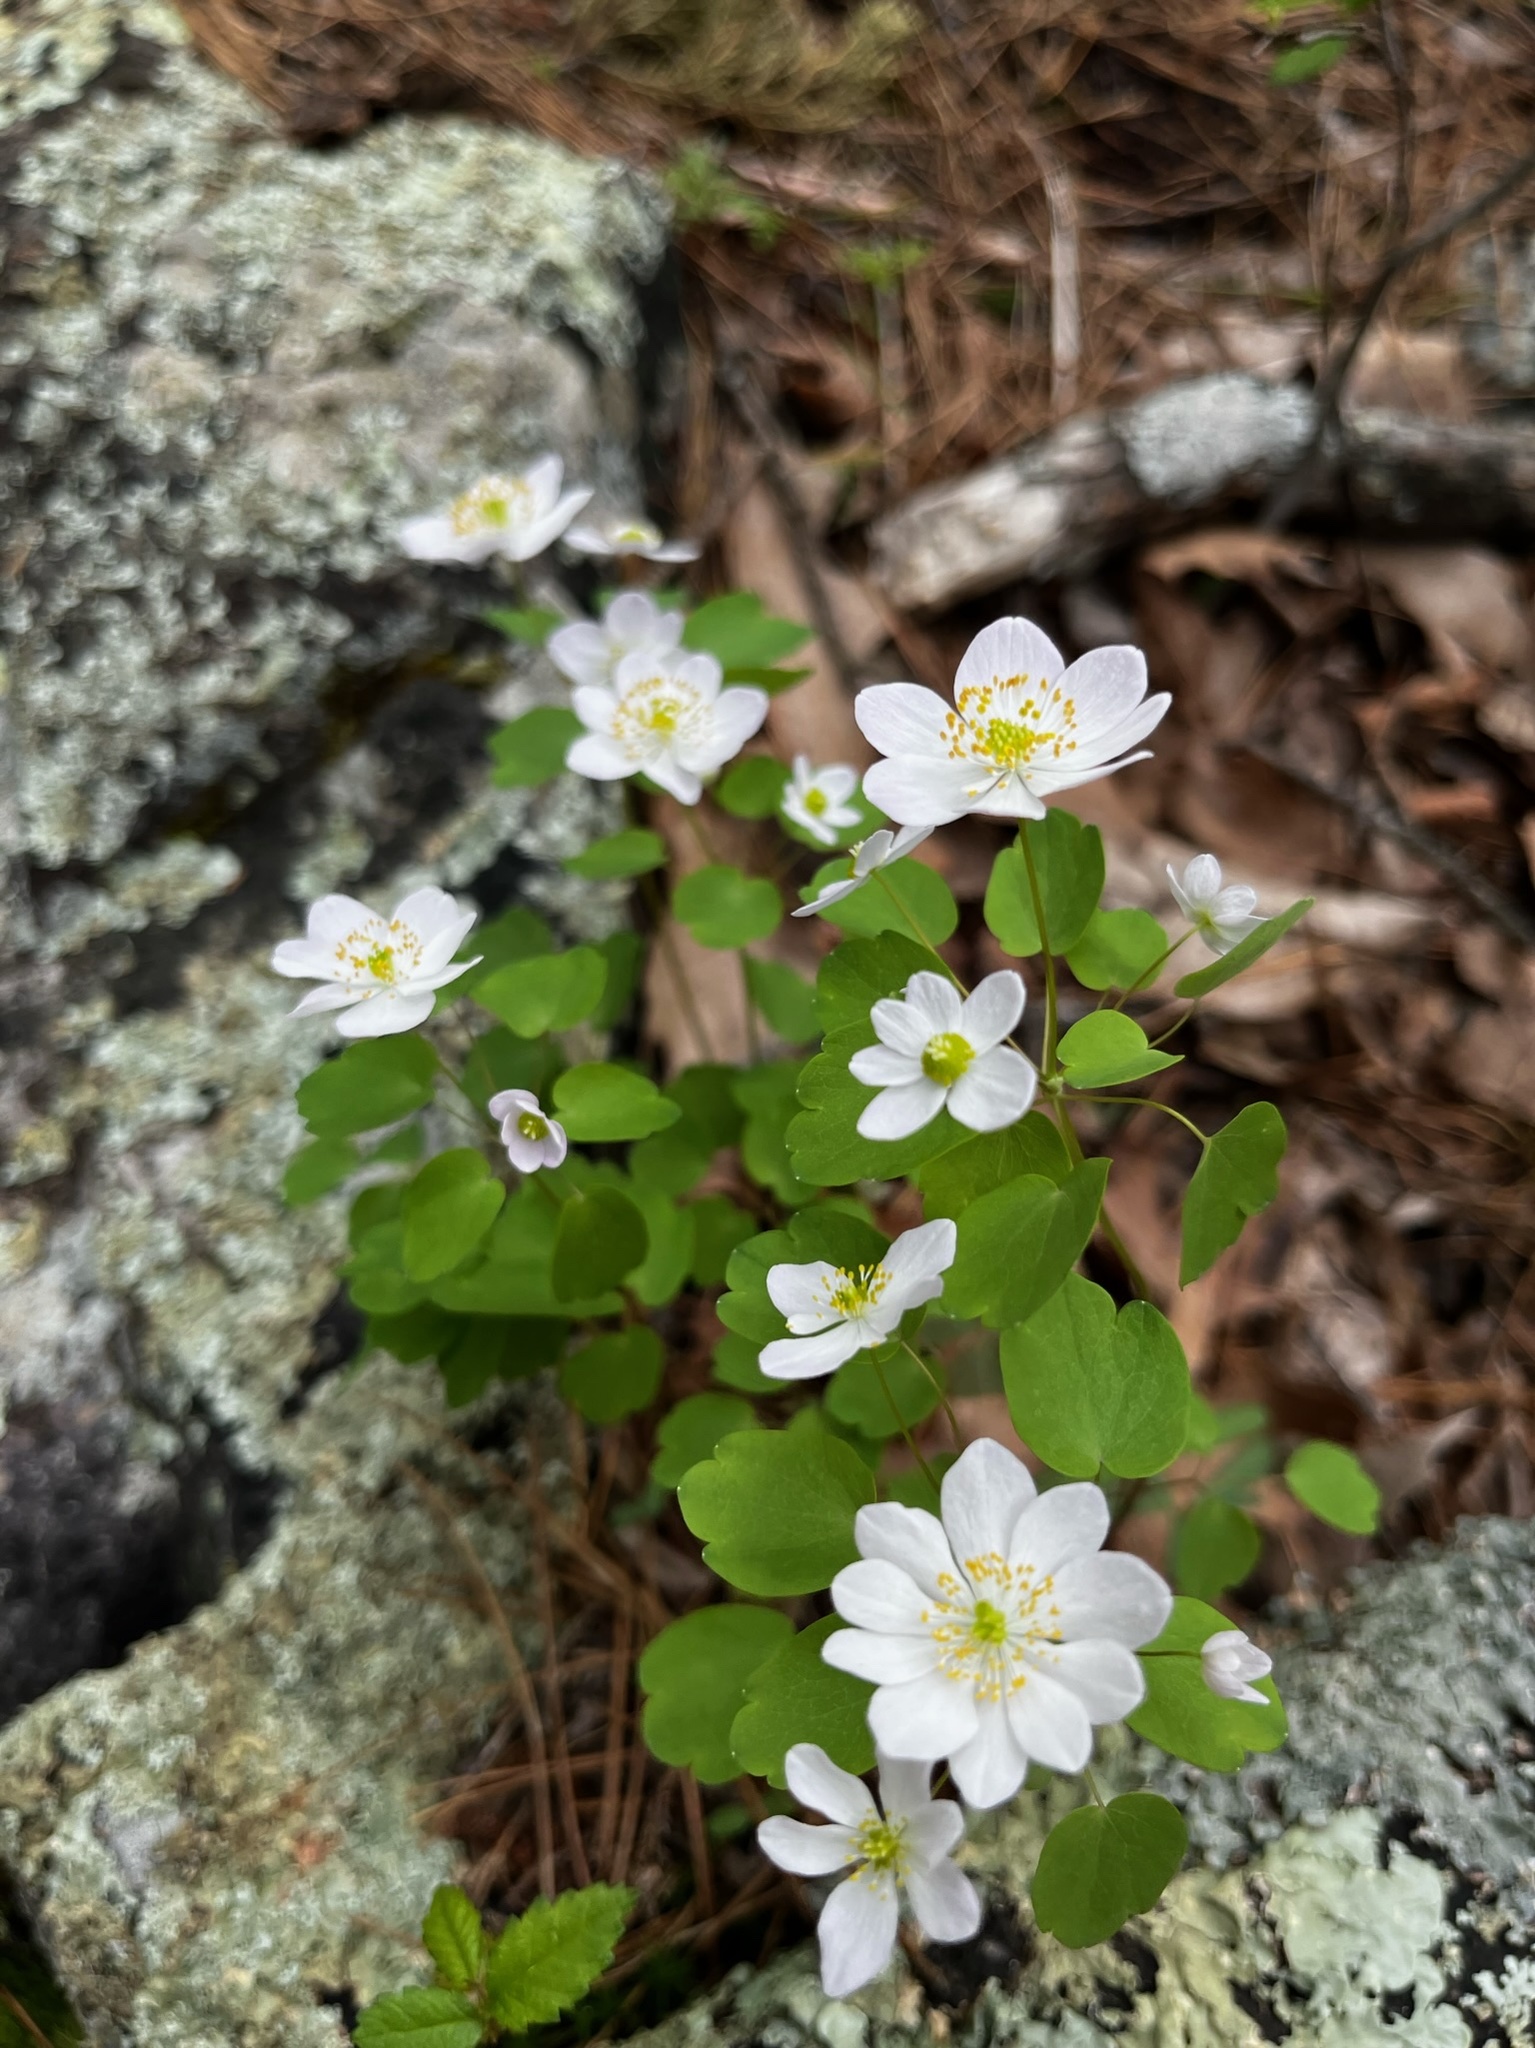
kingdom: Plantae
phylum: Tracheophyta
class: Magnoliopsida
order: Ranunculales
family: Ranunculaceae
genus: Thalictrum
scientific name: Thalictrum thalictroides
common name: Rue-anemone
